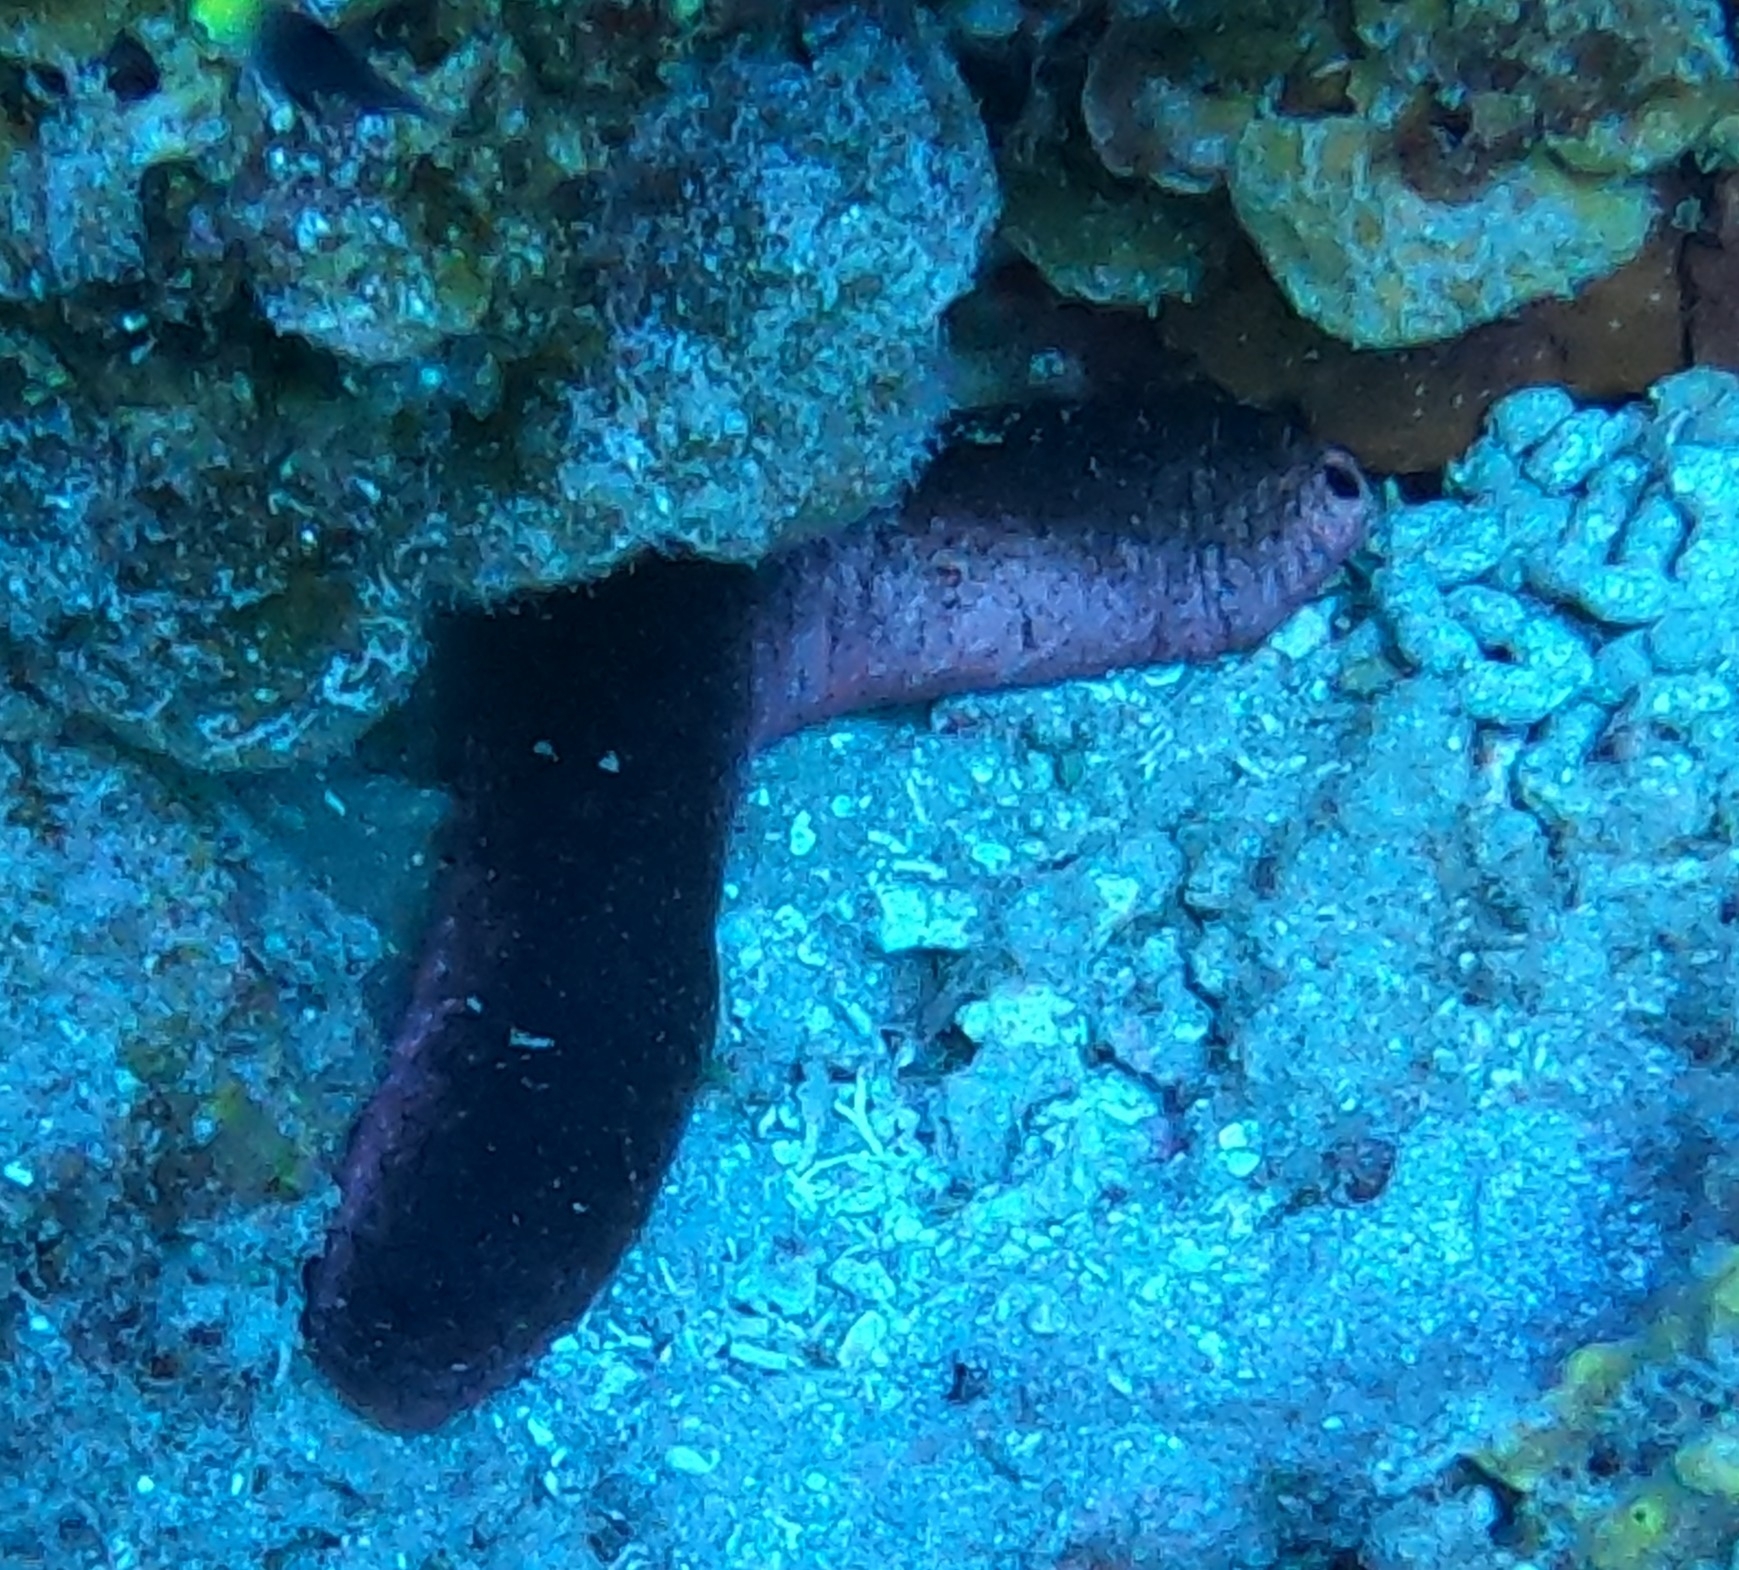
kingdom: Animalia
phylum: Echinodermata
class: Holothuroidea
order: Holothuriida
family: Holothuriidae
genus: Holothuria
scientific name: Holothuria edulis
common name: Pinkfish
